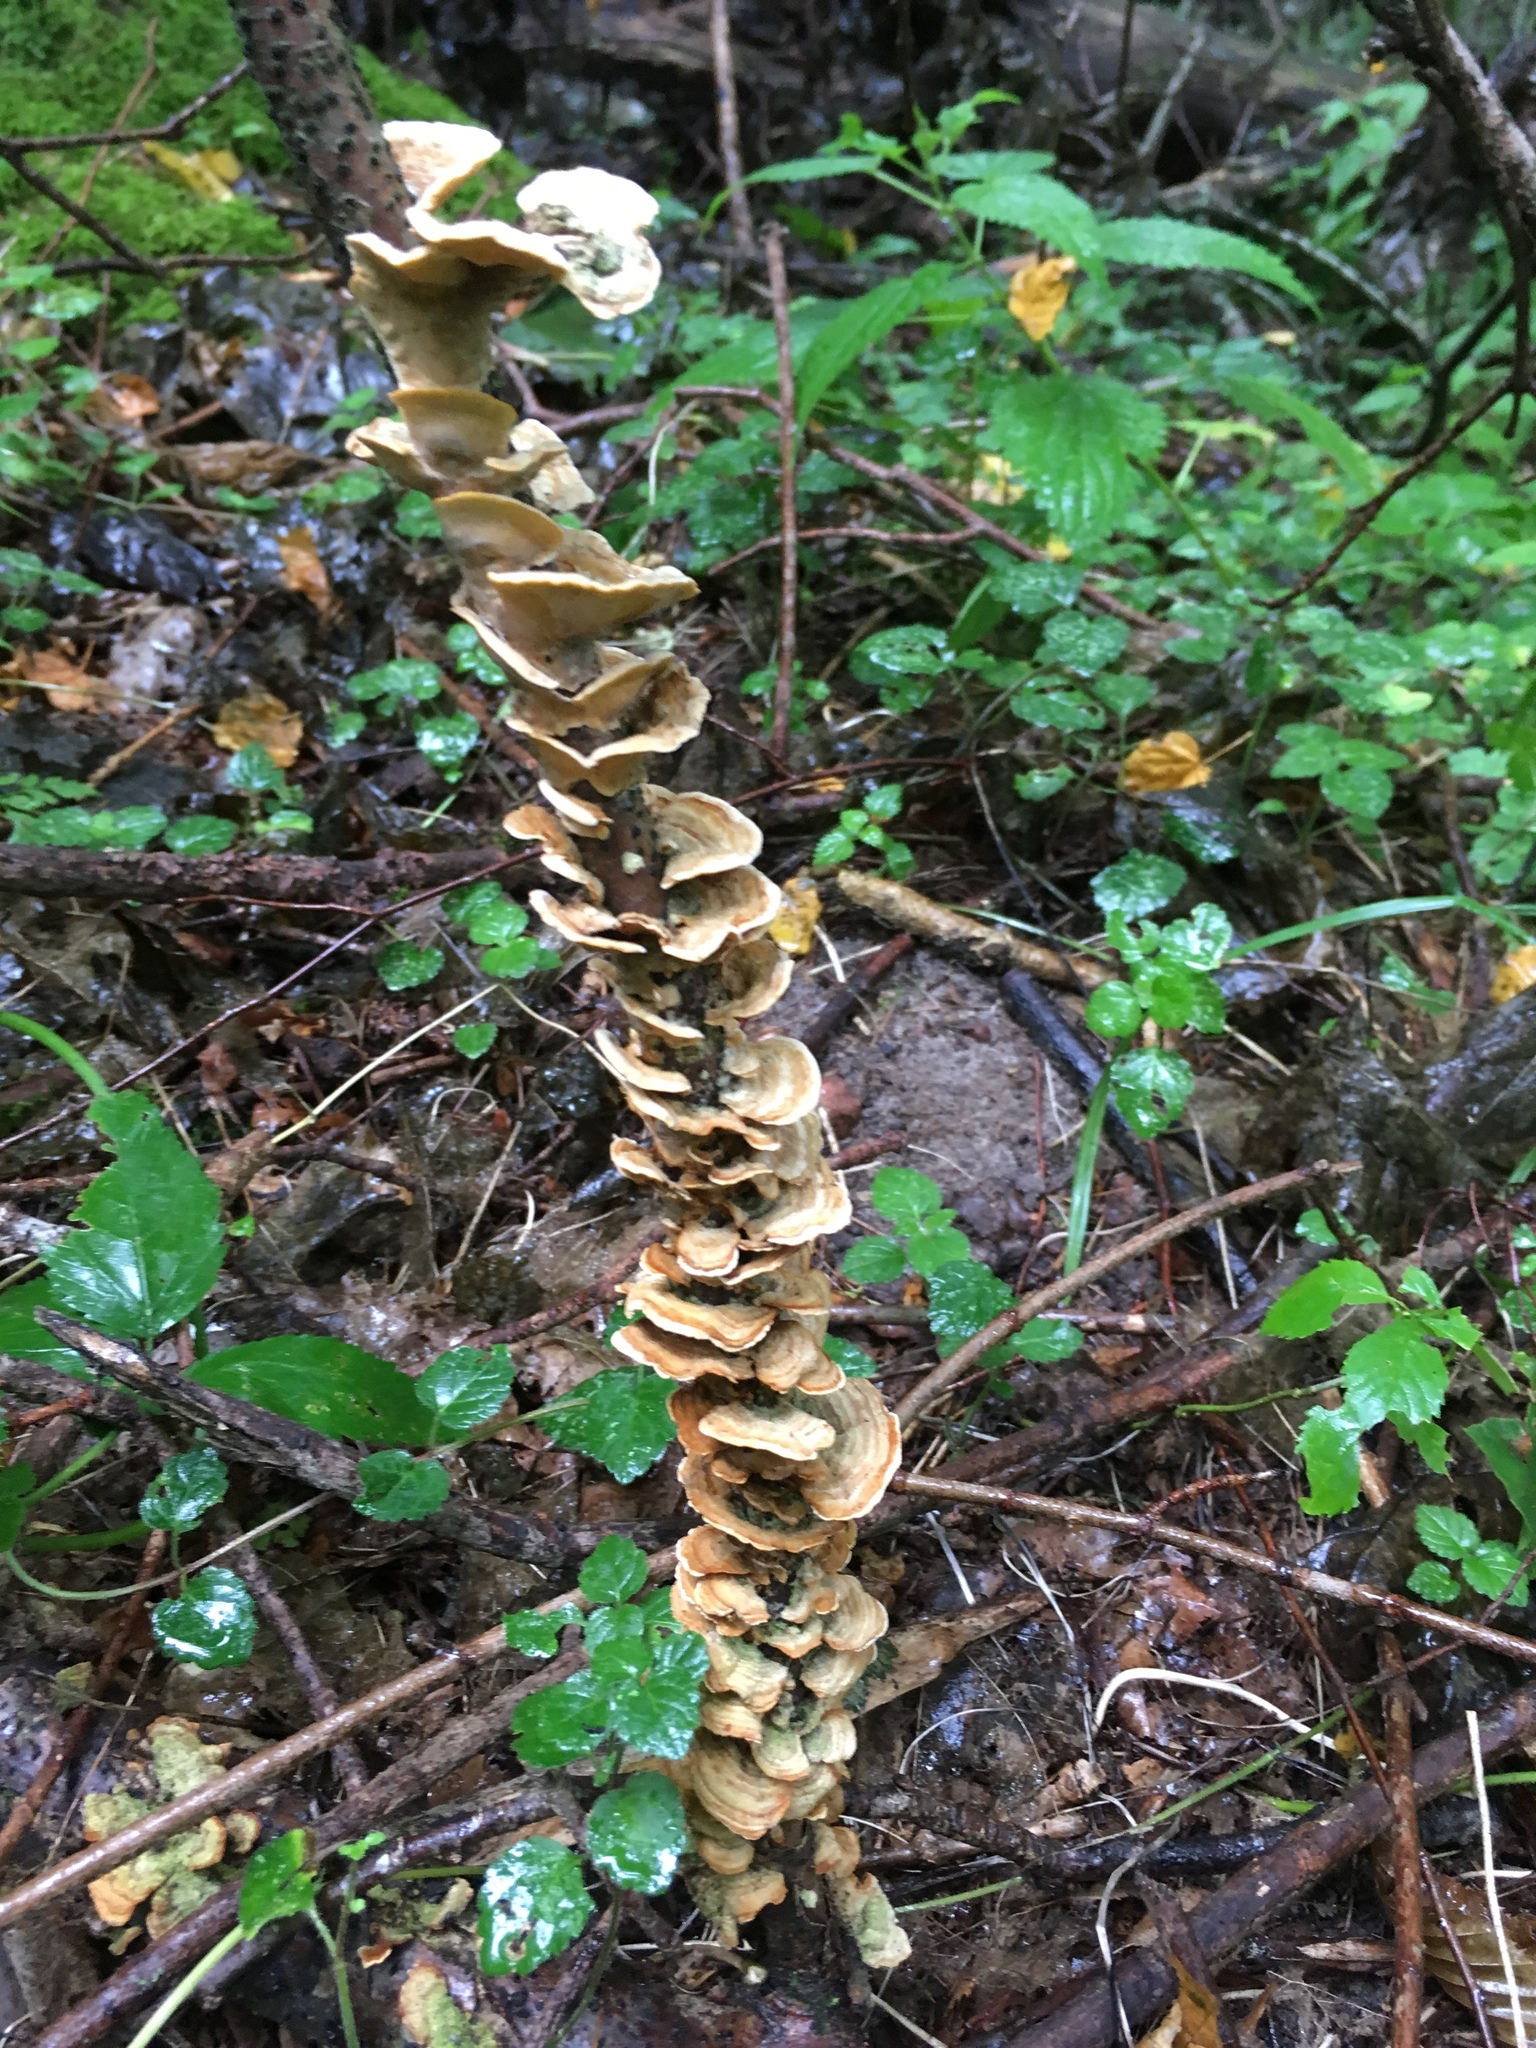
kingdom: Fungi
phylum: Basidiomycota
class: Agaricomycetes
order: Russulales
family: Stereaceae
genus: Stereum
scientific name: Stereum hirsutum
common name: Hairy curtain crust
